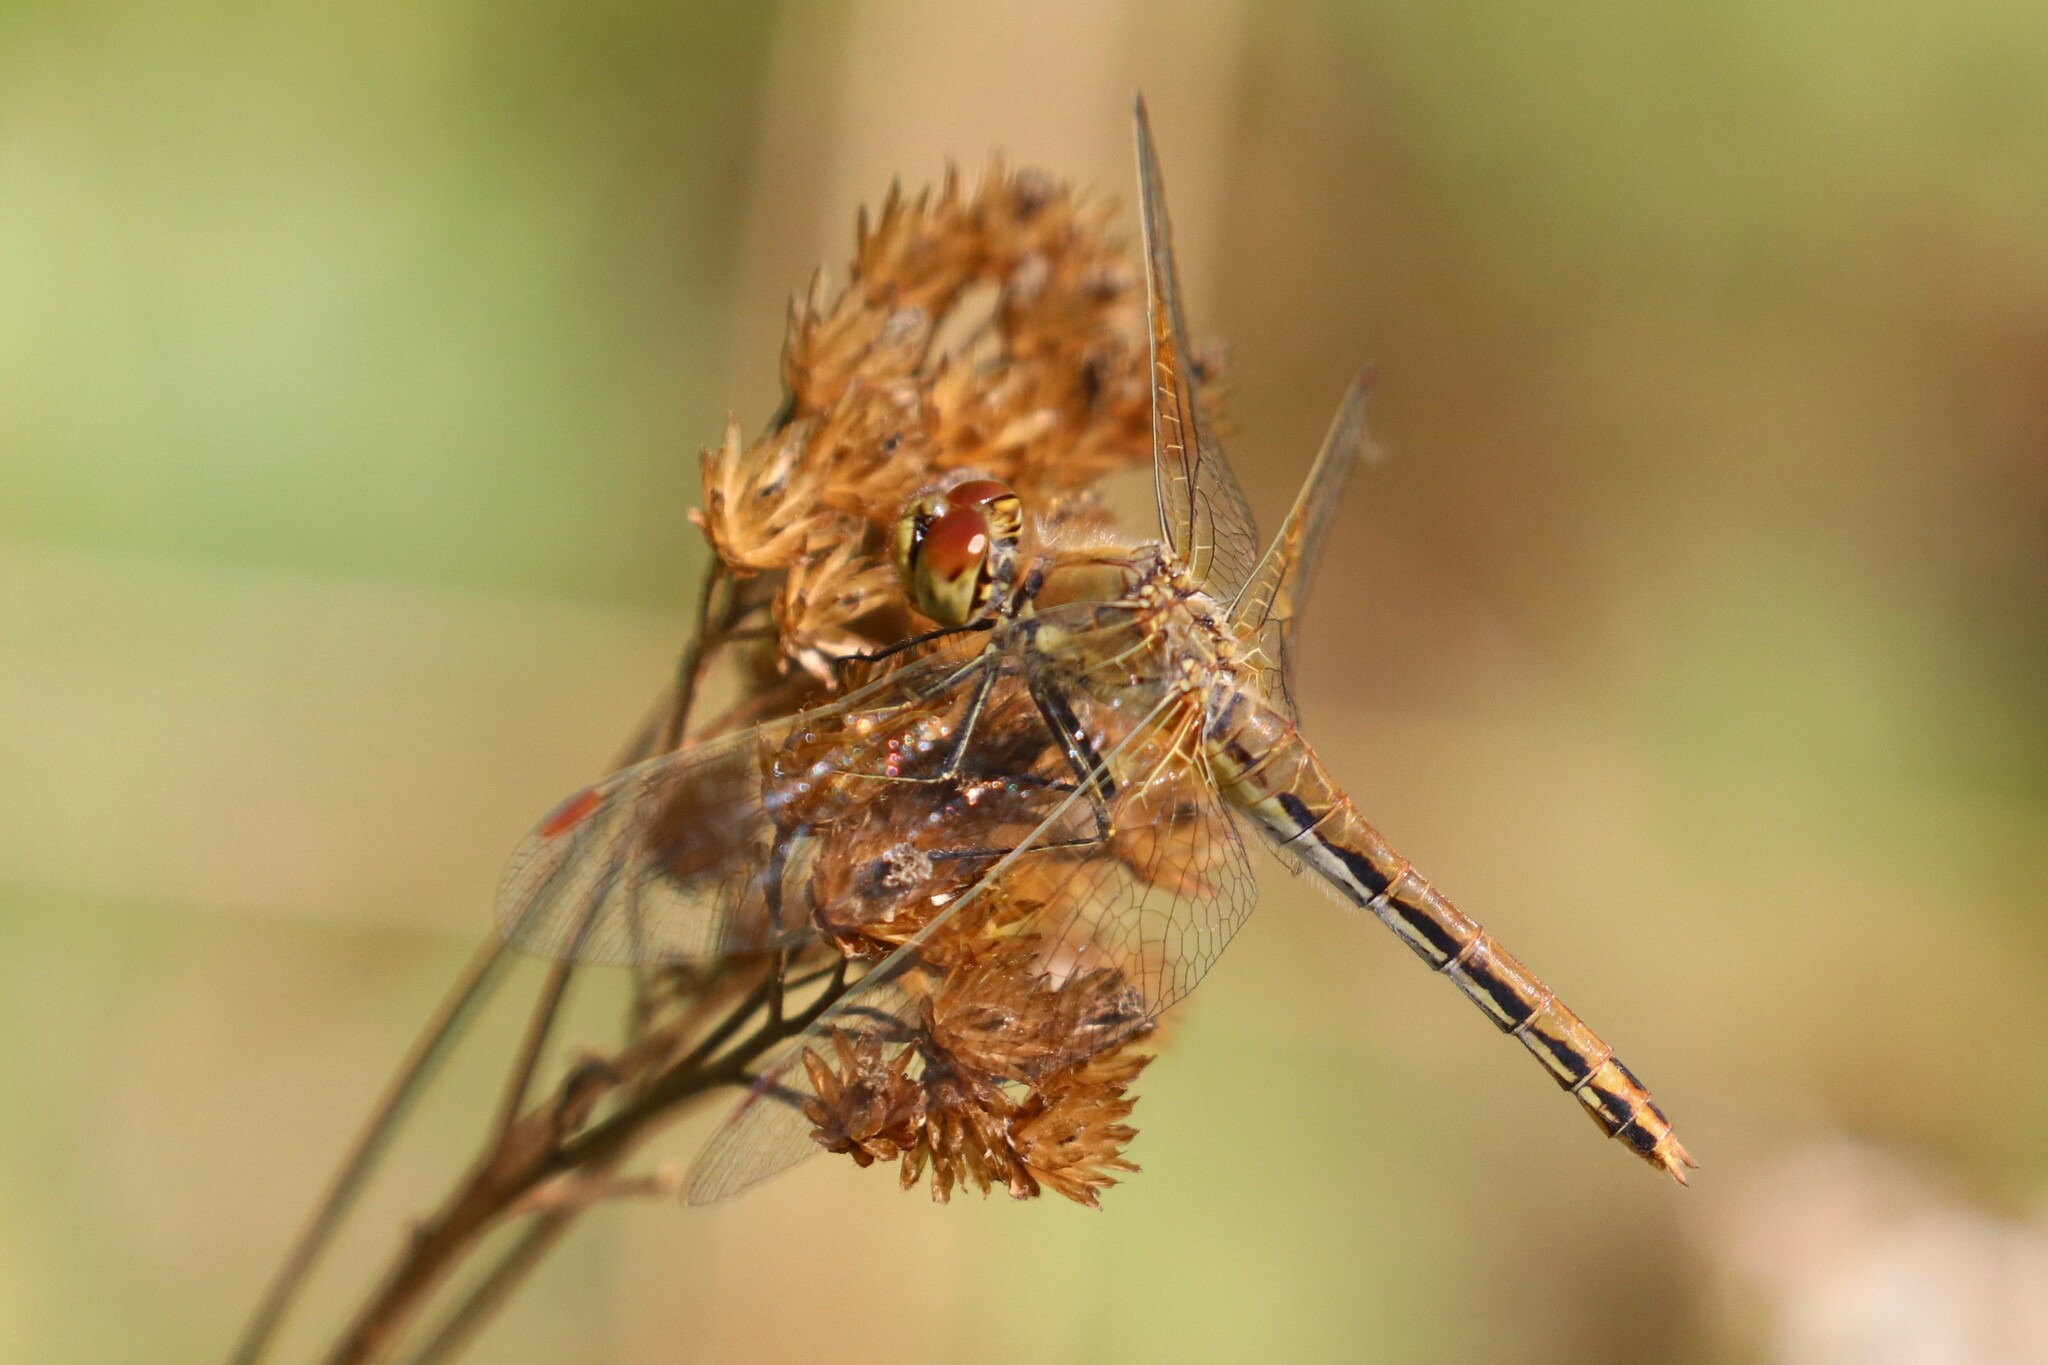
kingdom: Animalia
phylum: Arthropoda
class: Insecta
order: Odonata
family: Libellulidae
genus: Sympetrum
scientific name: Sympetrum flaveolum
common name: Yellow-winged darter
